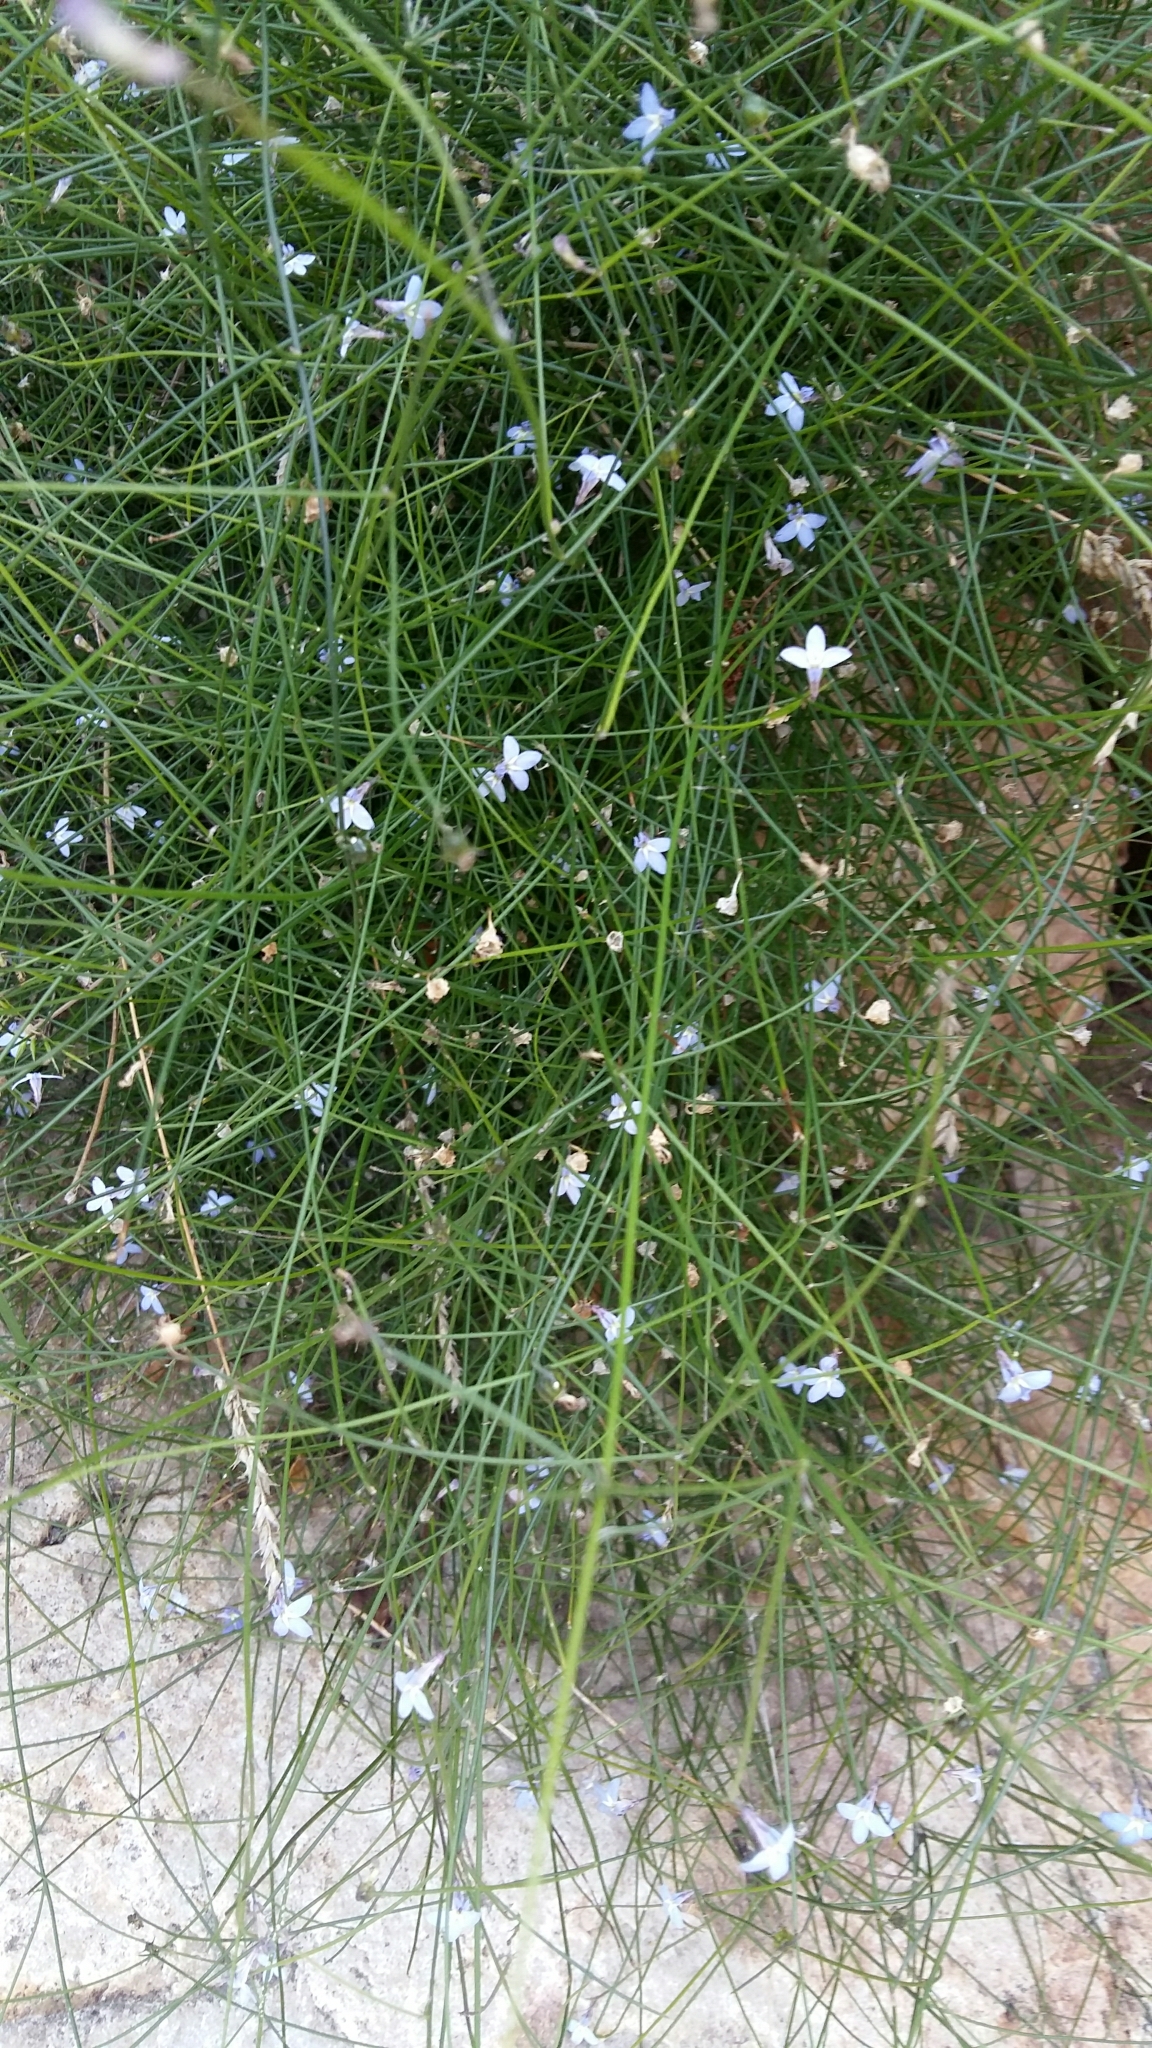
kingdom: Plantae
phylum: Tracheophyta
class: Magnoliopsida
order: Asterales
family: Campanulaceae
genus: Lobelia
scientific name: Lobelia patula
